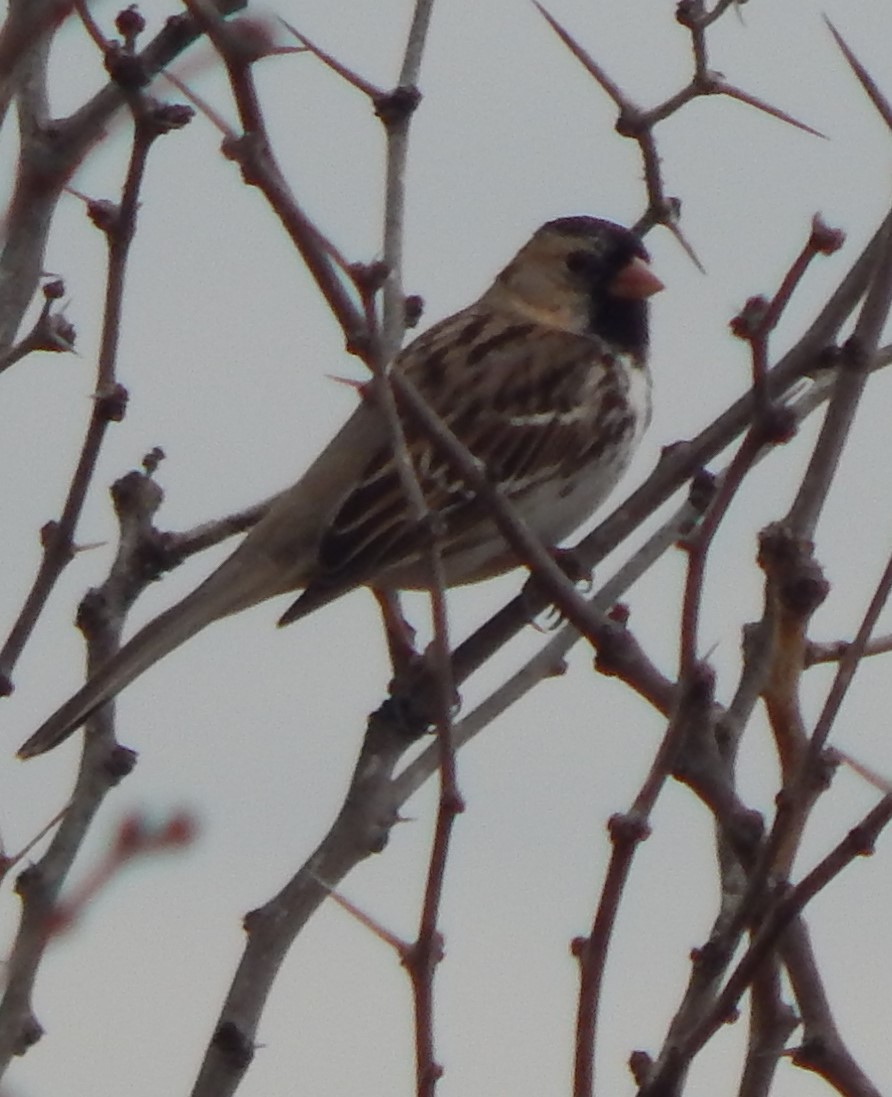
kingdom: Animalia
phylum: Chordata
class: Aves
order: Passeriformes
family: Passerellidae
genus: Zonotrichia
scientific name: Zonotrichia querula
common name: Harris's sparrow
